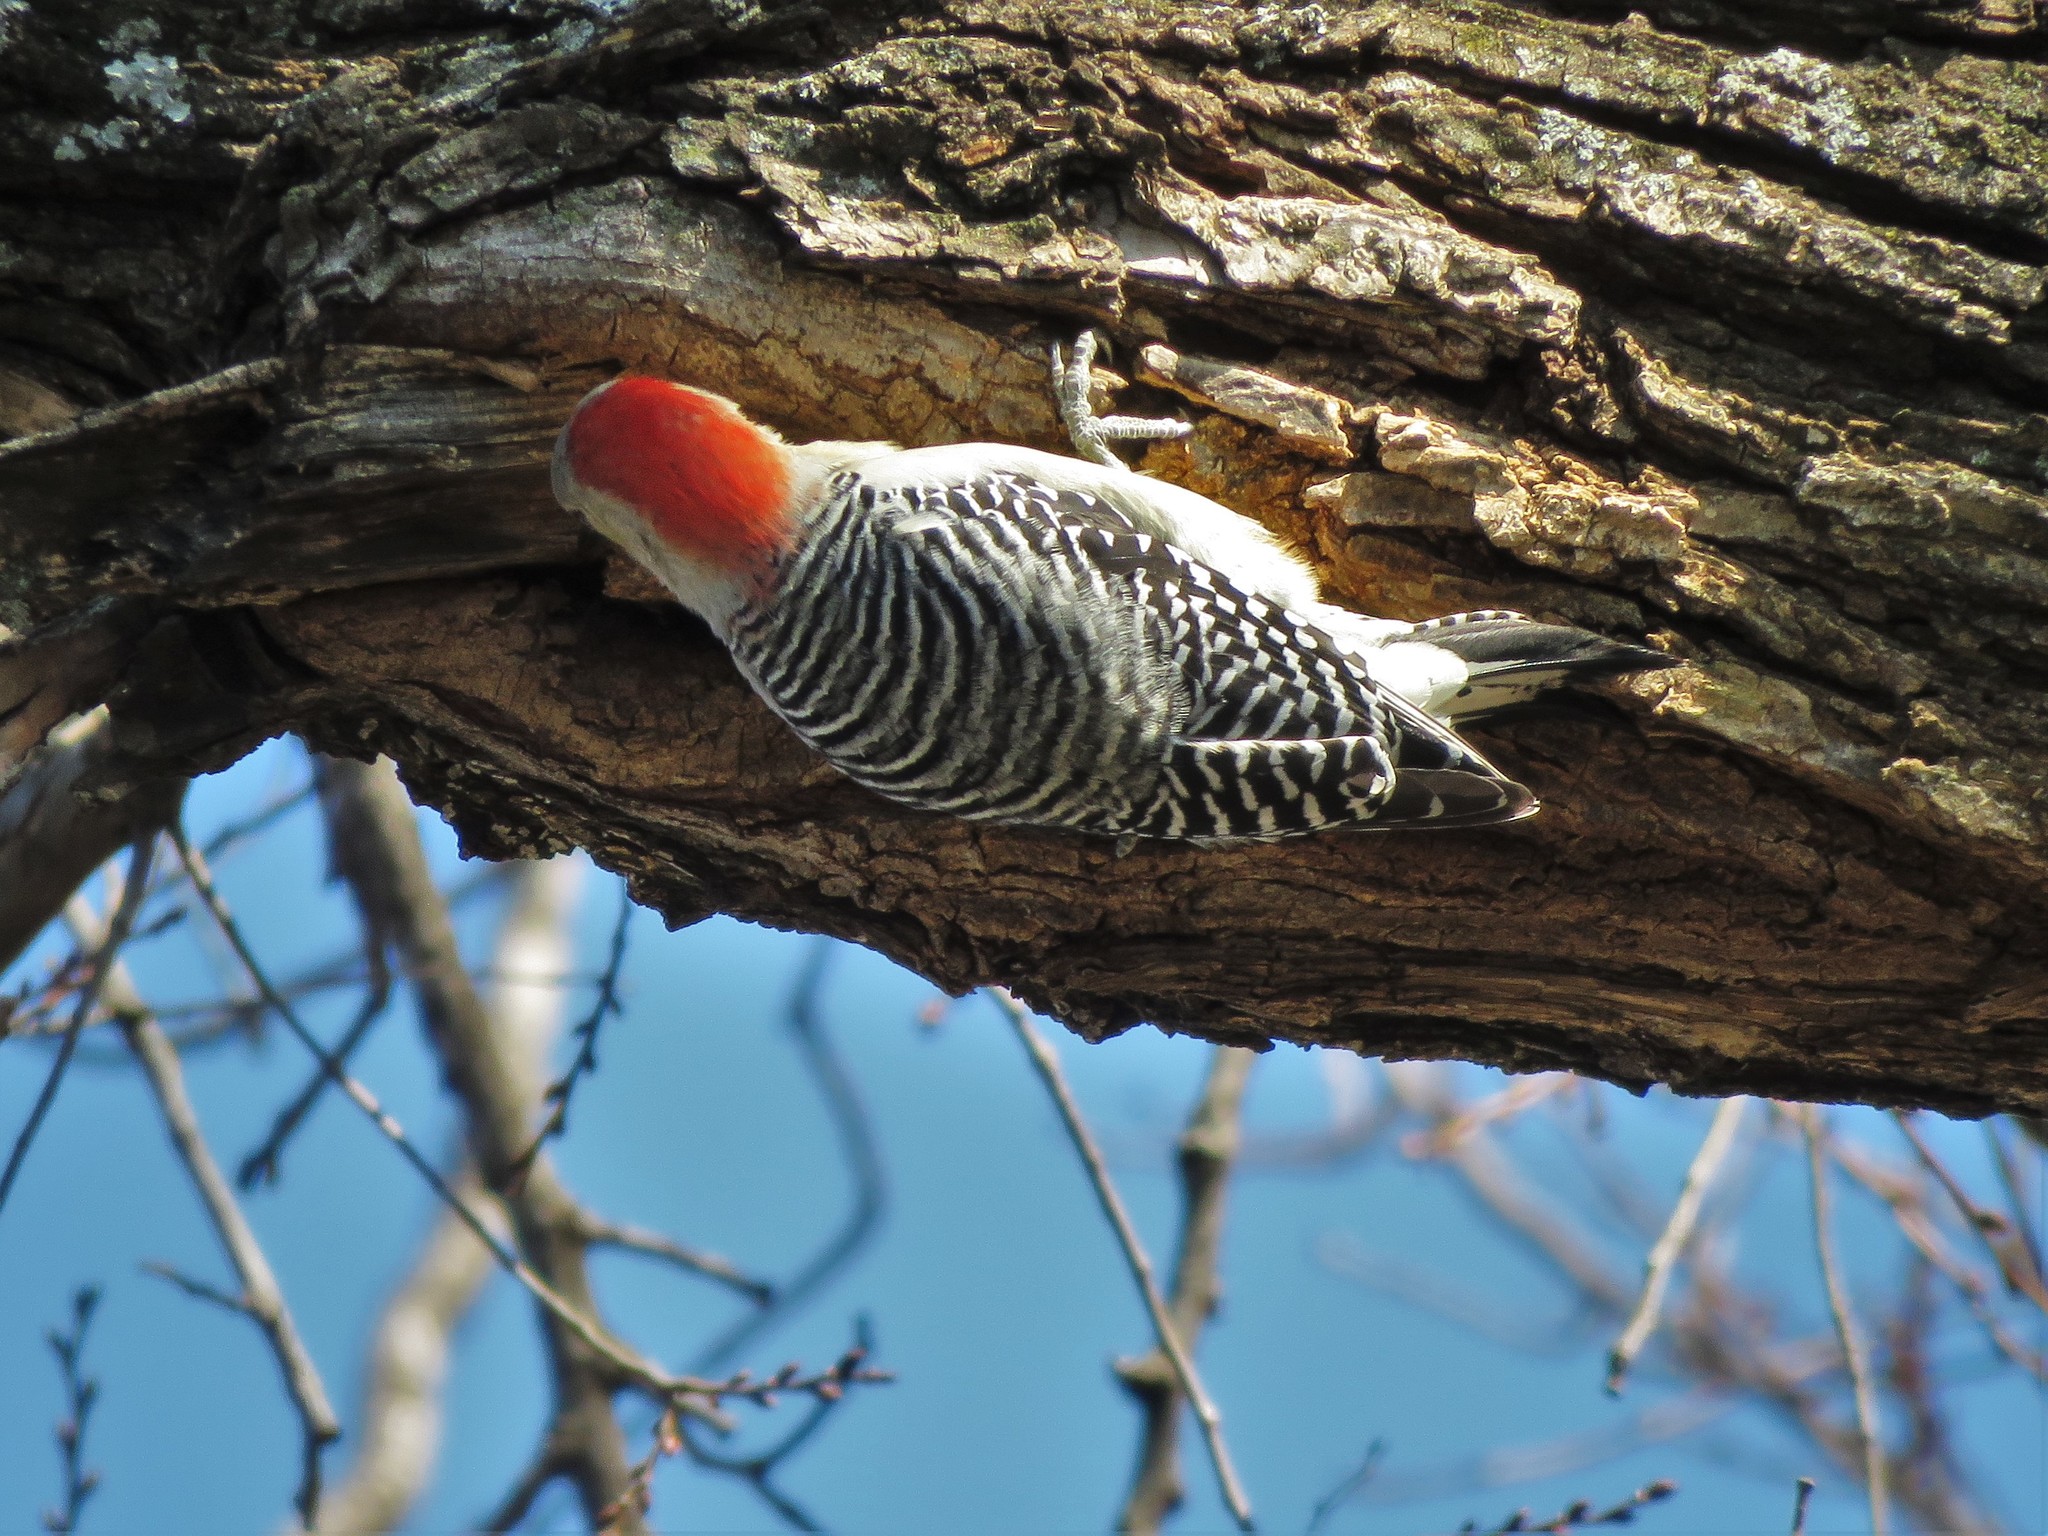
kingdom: Animalia
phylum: Chordata
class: Aves
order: Piciformes
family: Picidae
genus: Melanerpes
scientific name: Melanerpes carolinus
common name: Red-bellied woodpecker
